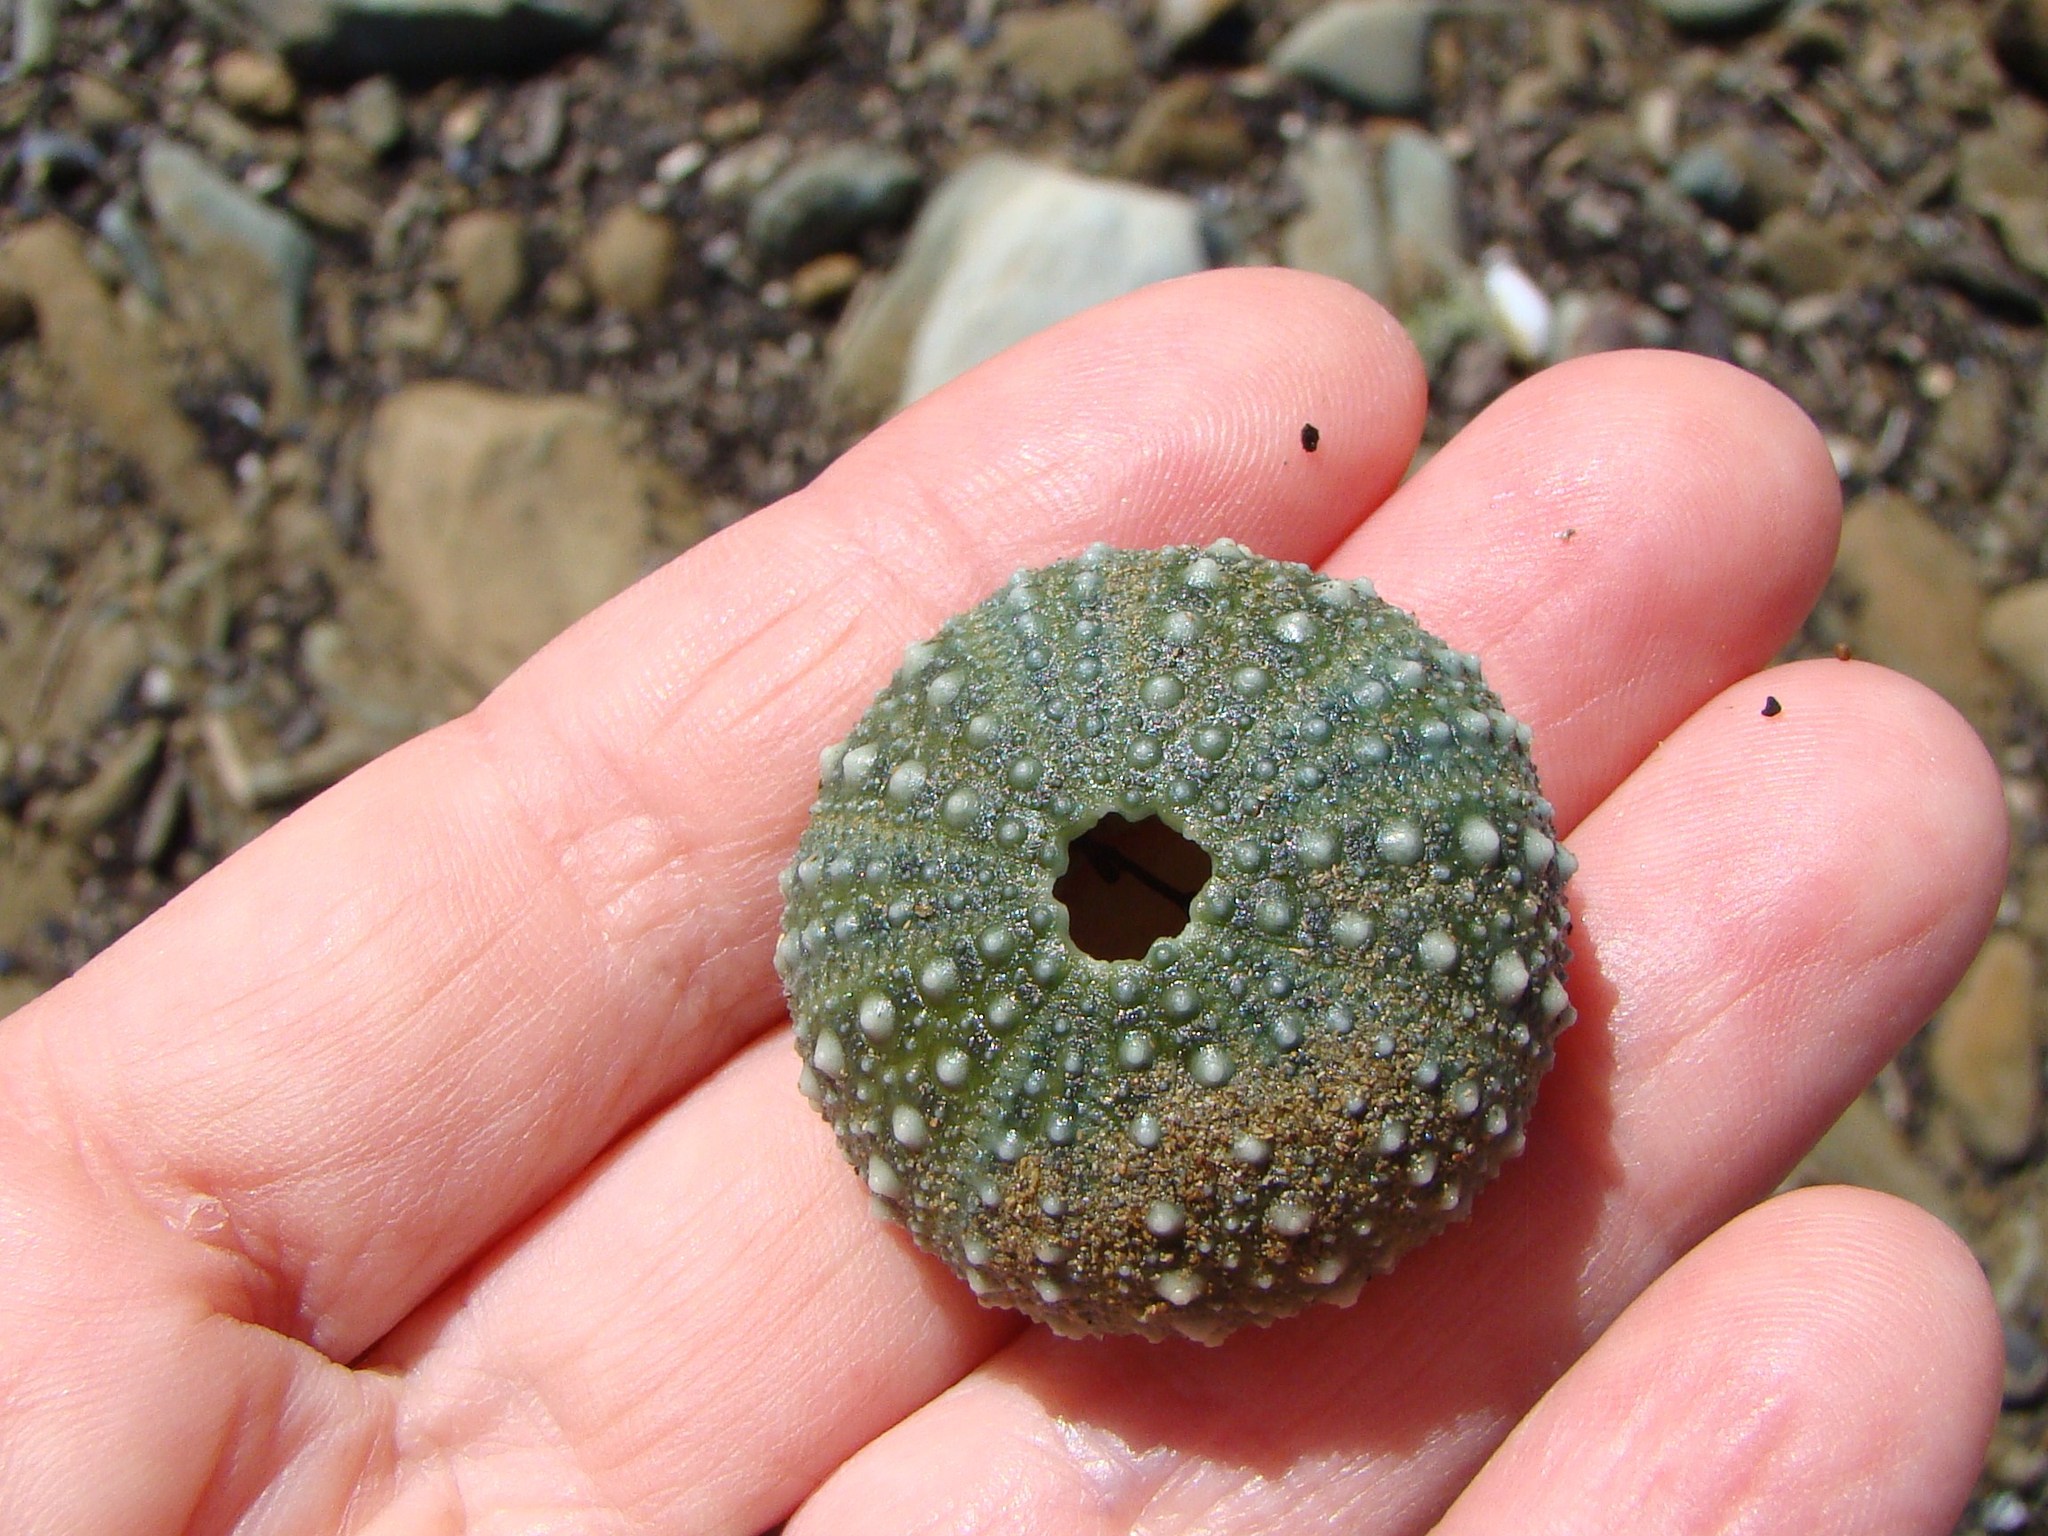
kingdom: Animalia
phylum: Echinodermata
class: Echinoidea
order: Camarodonta
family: Echinometridae
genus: Evechinus
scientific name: Evechinus chloroticus
